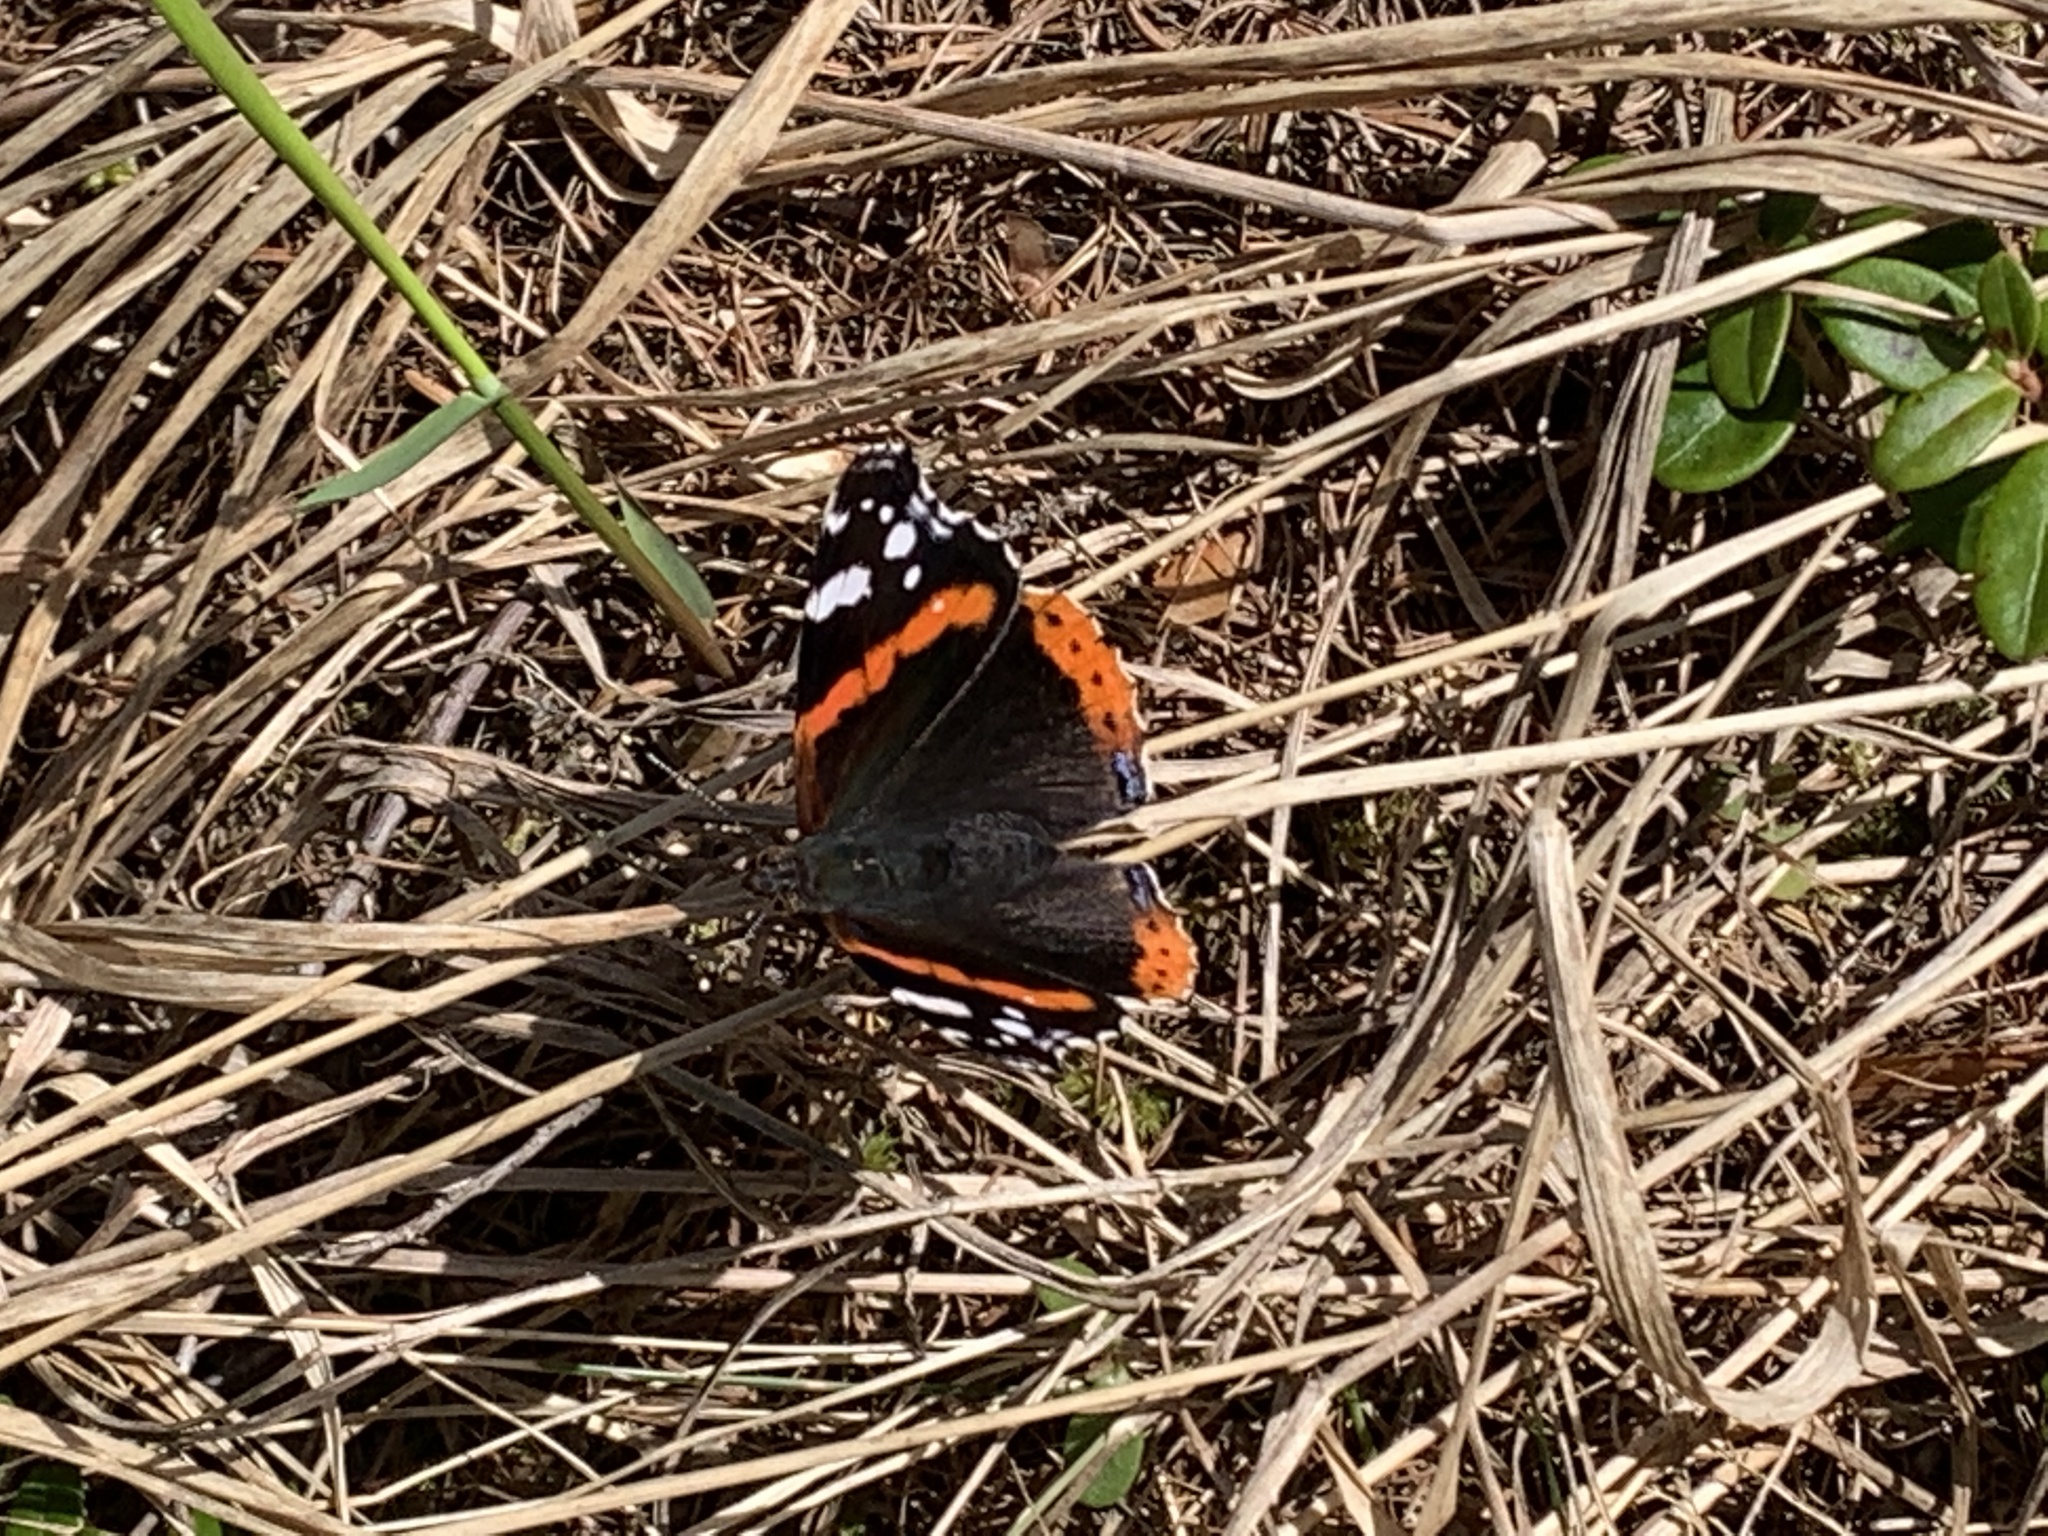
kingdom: Animalia
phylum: Arthropoda
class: Insecta
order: Lepidoptera
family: Nymphalidae
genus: Vanessa
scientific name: Vanessa atalanta
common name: Red admiral
